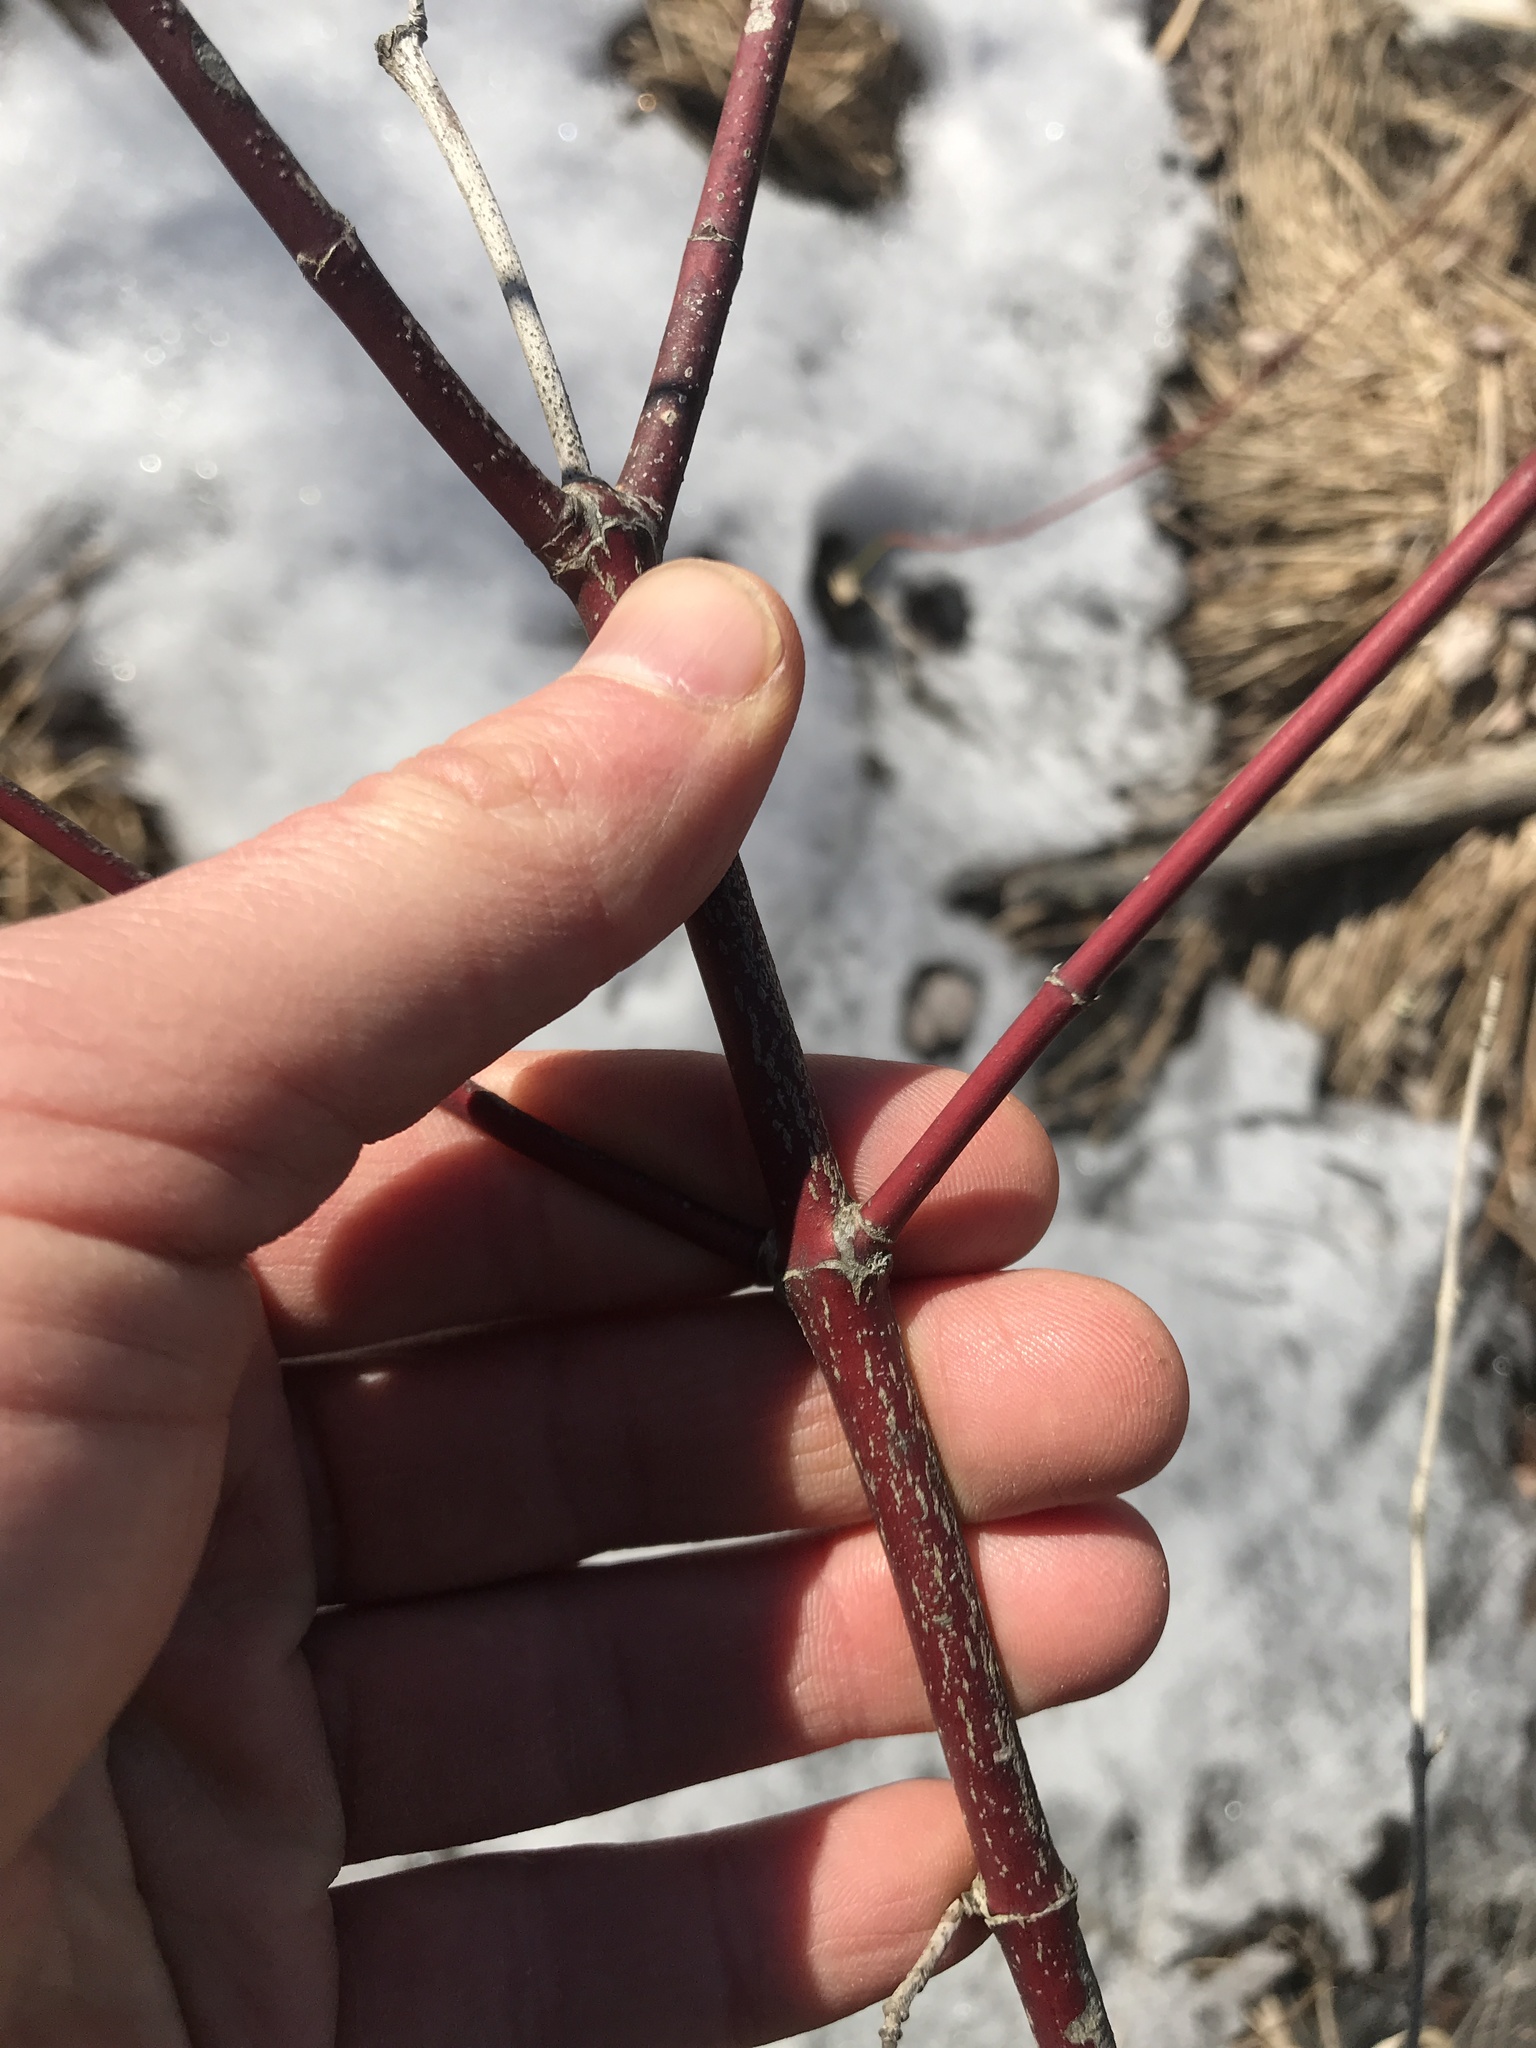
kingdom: Plantae
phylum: Tracheophyta
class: Magnoliopsida
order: Cornales
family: Cornaceae
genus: Cornus
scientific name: Cornus amomum
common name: Silky dogwood
